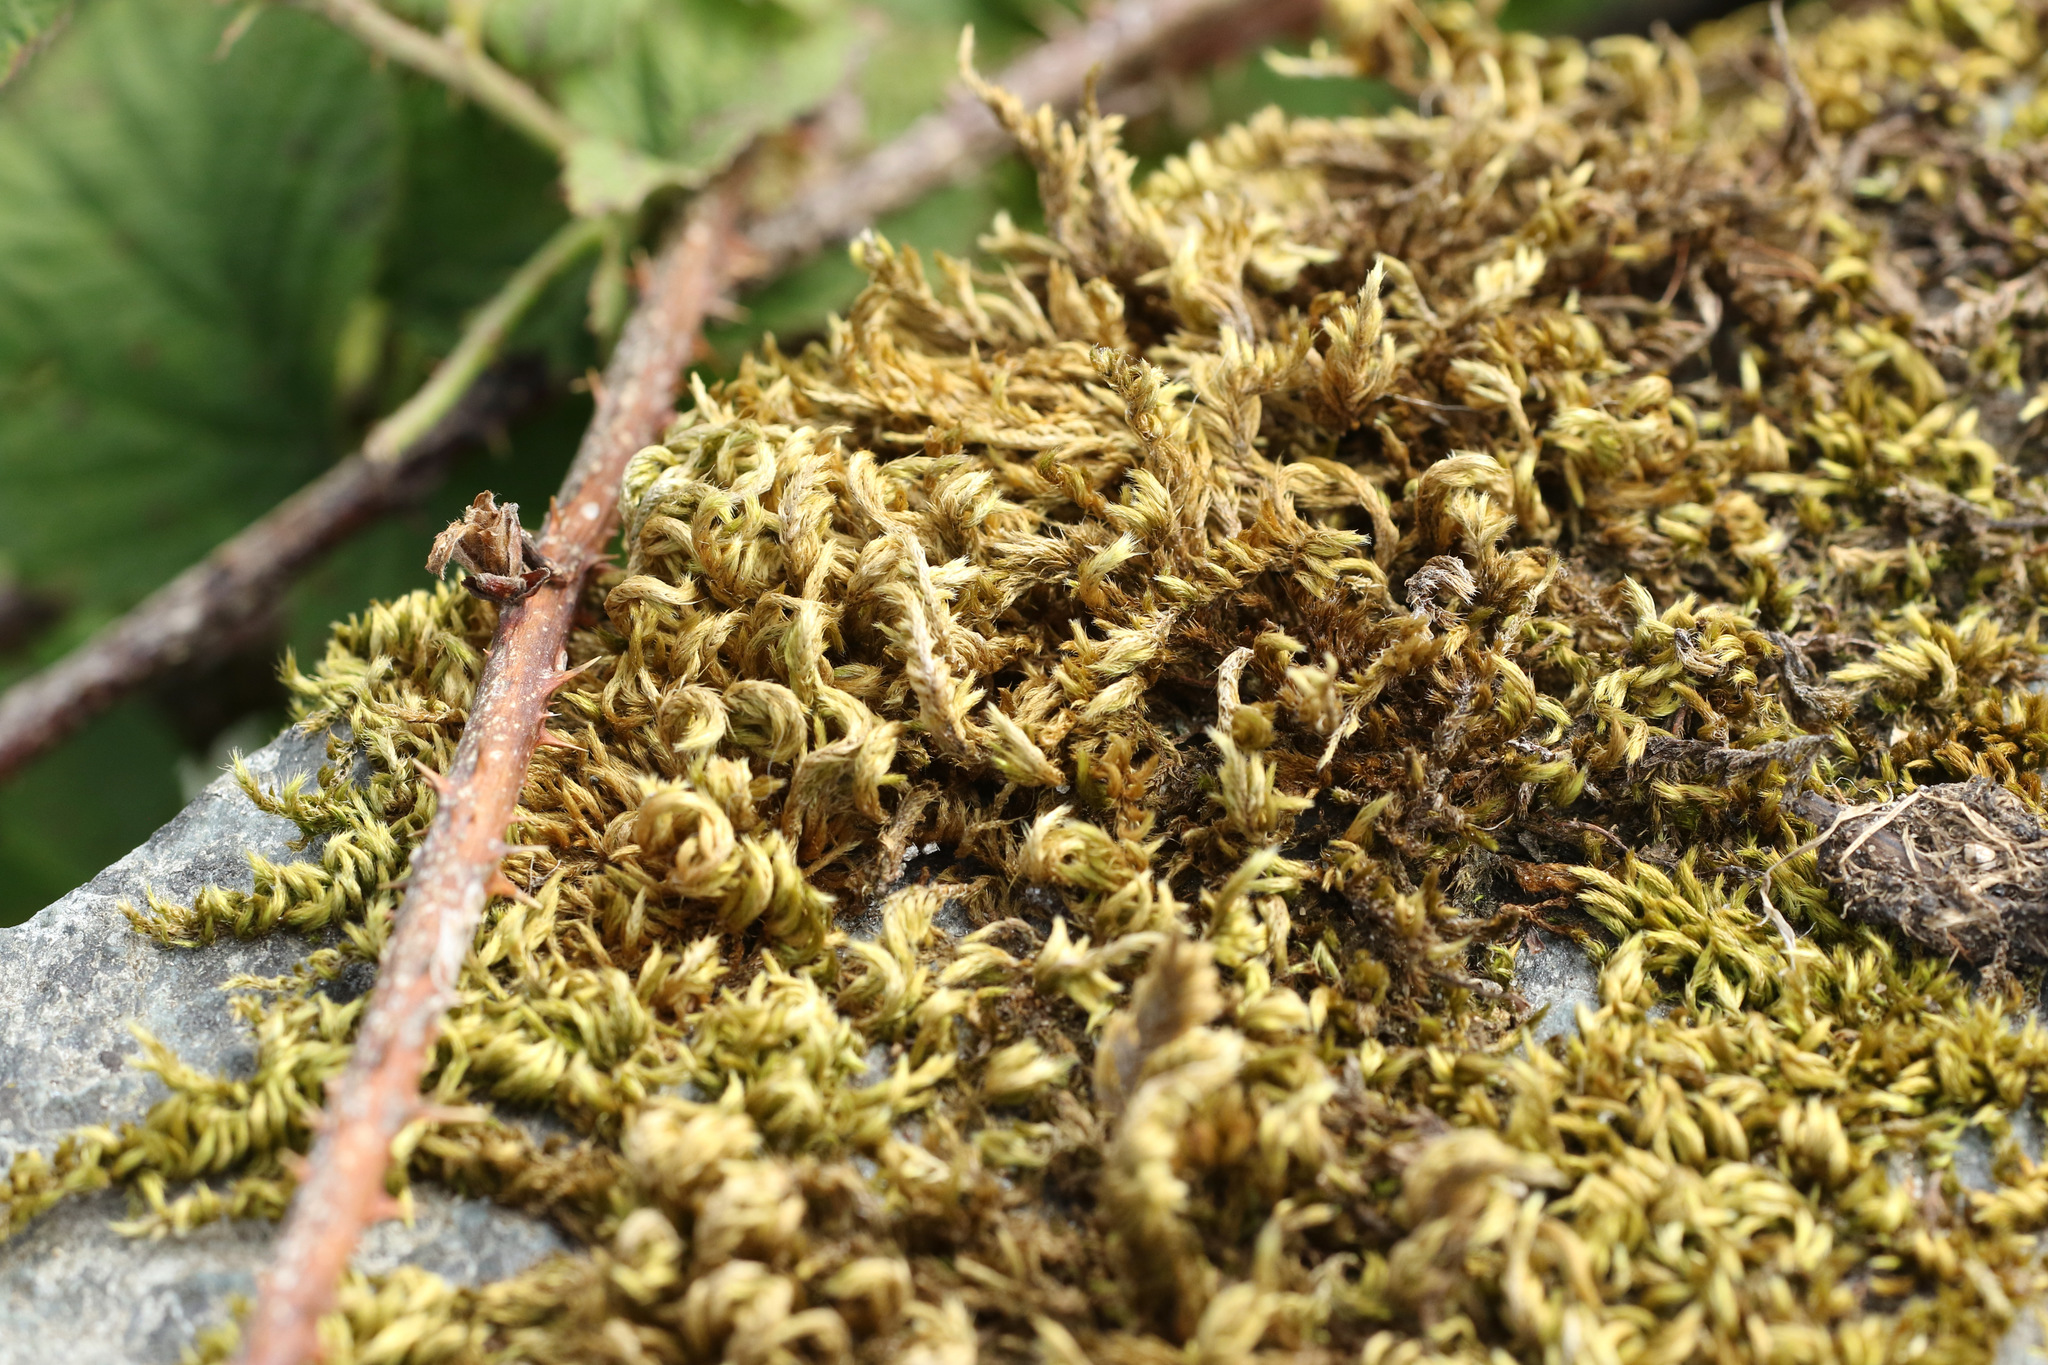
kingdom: Plantae
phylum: Bryophyta
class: Bryopsida
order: Hypnales
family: Brachytheciaceae
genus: Homalothecium
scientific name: Homalothecium sericeum
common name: Silky wall feather-moss
